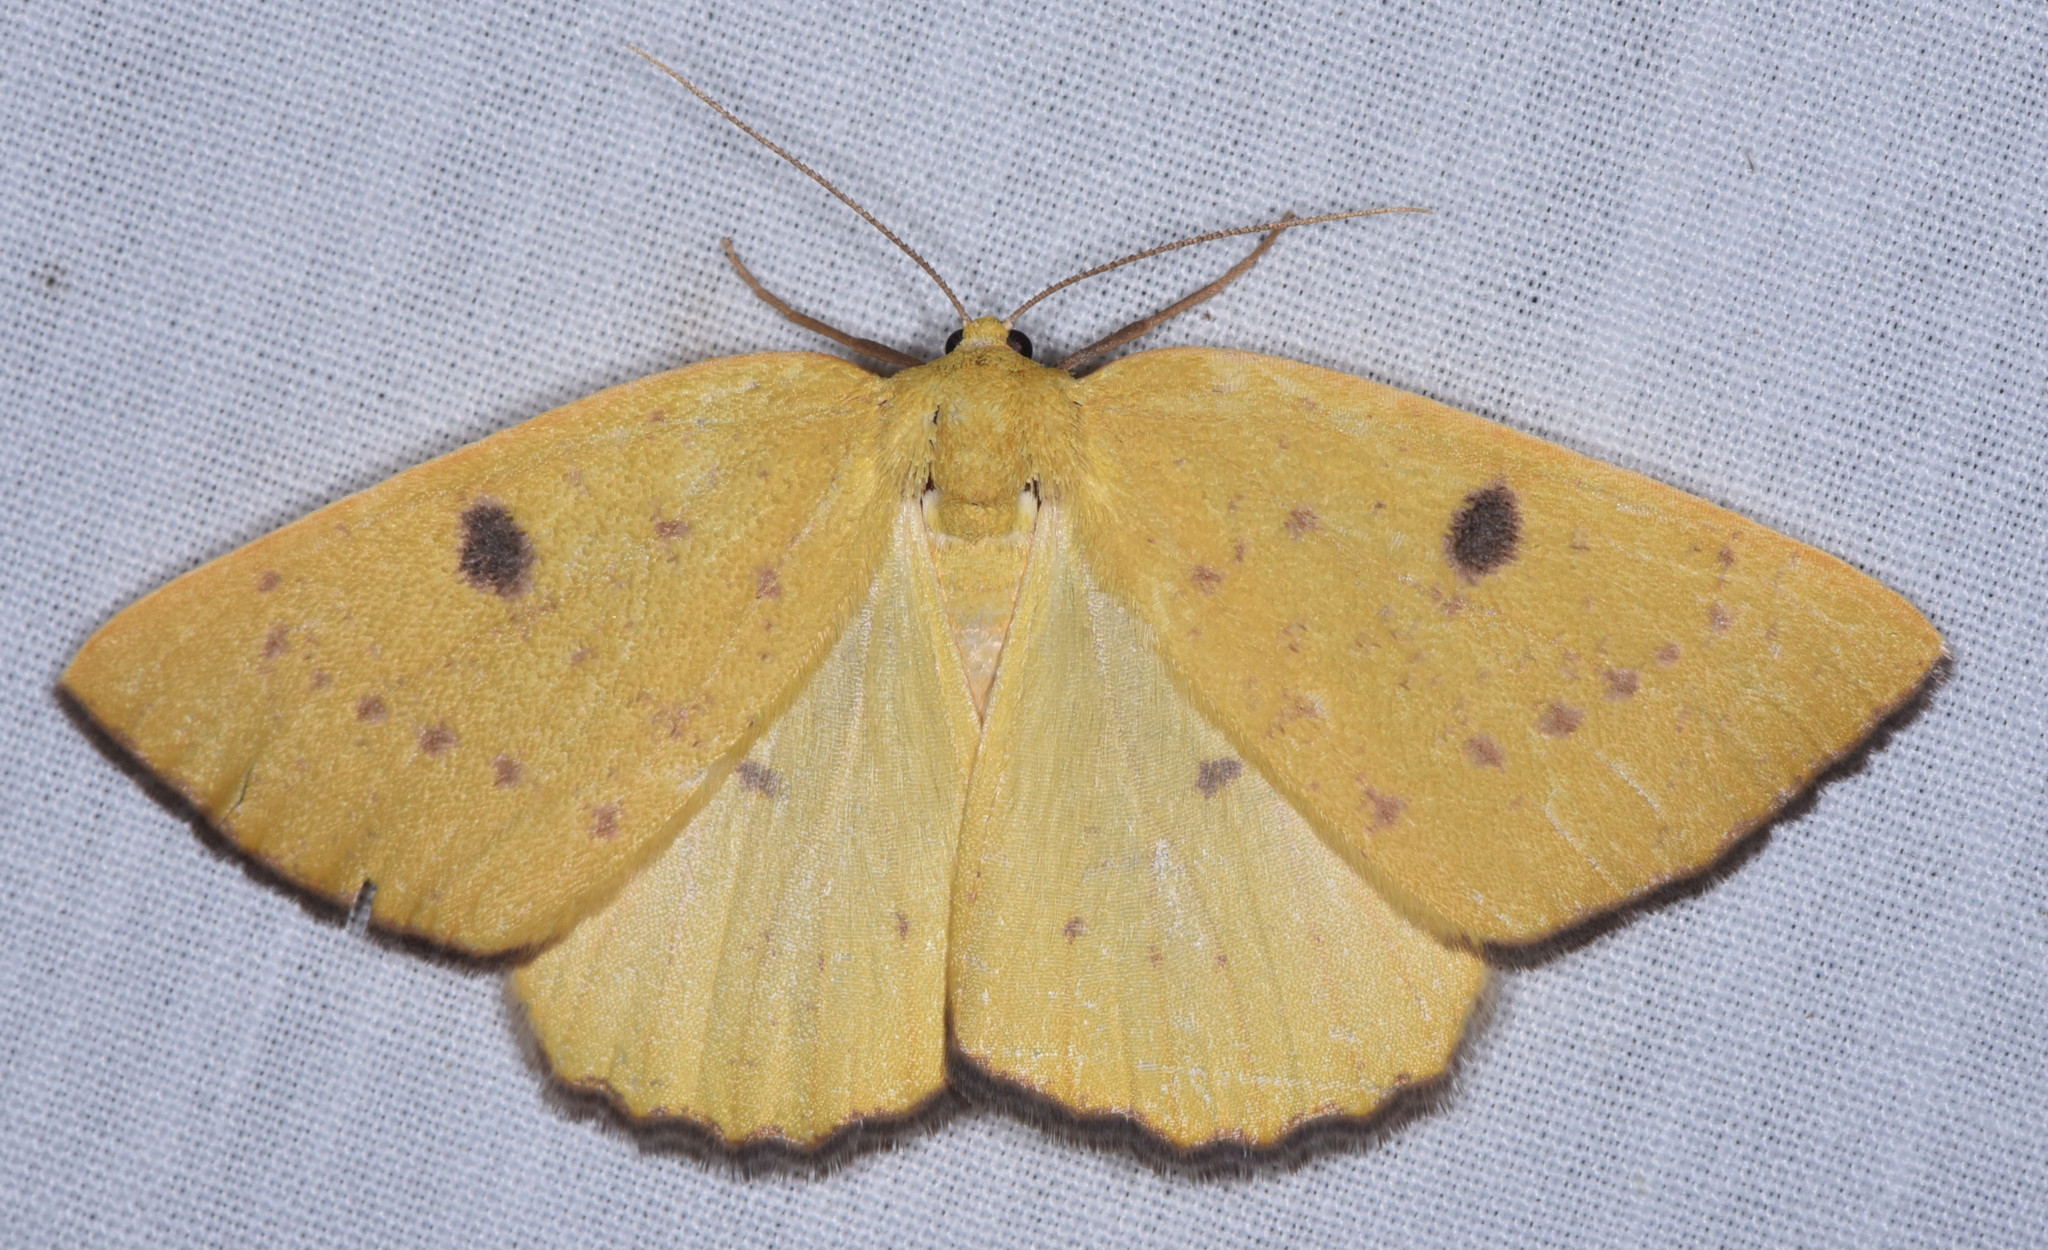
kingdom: Animalia
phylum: Arthropoda
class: Insecta
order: Lepidoptera
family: Geometridae
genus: Hesperumia
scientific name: Hesperumia fumosaria
